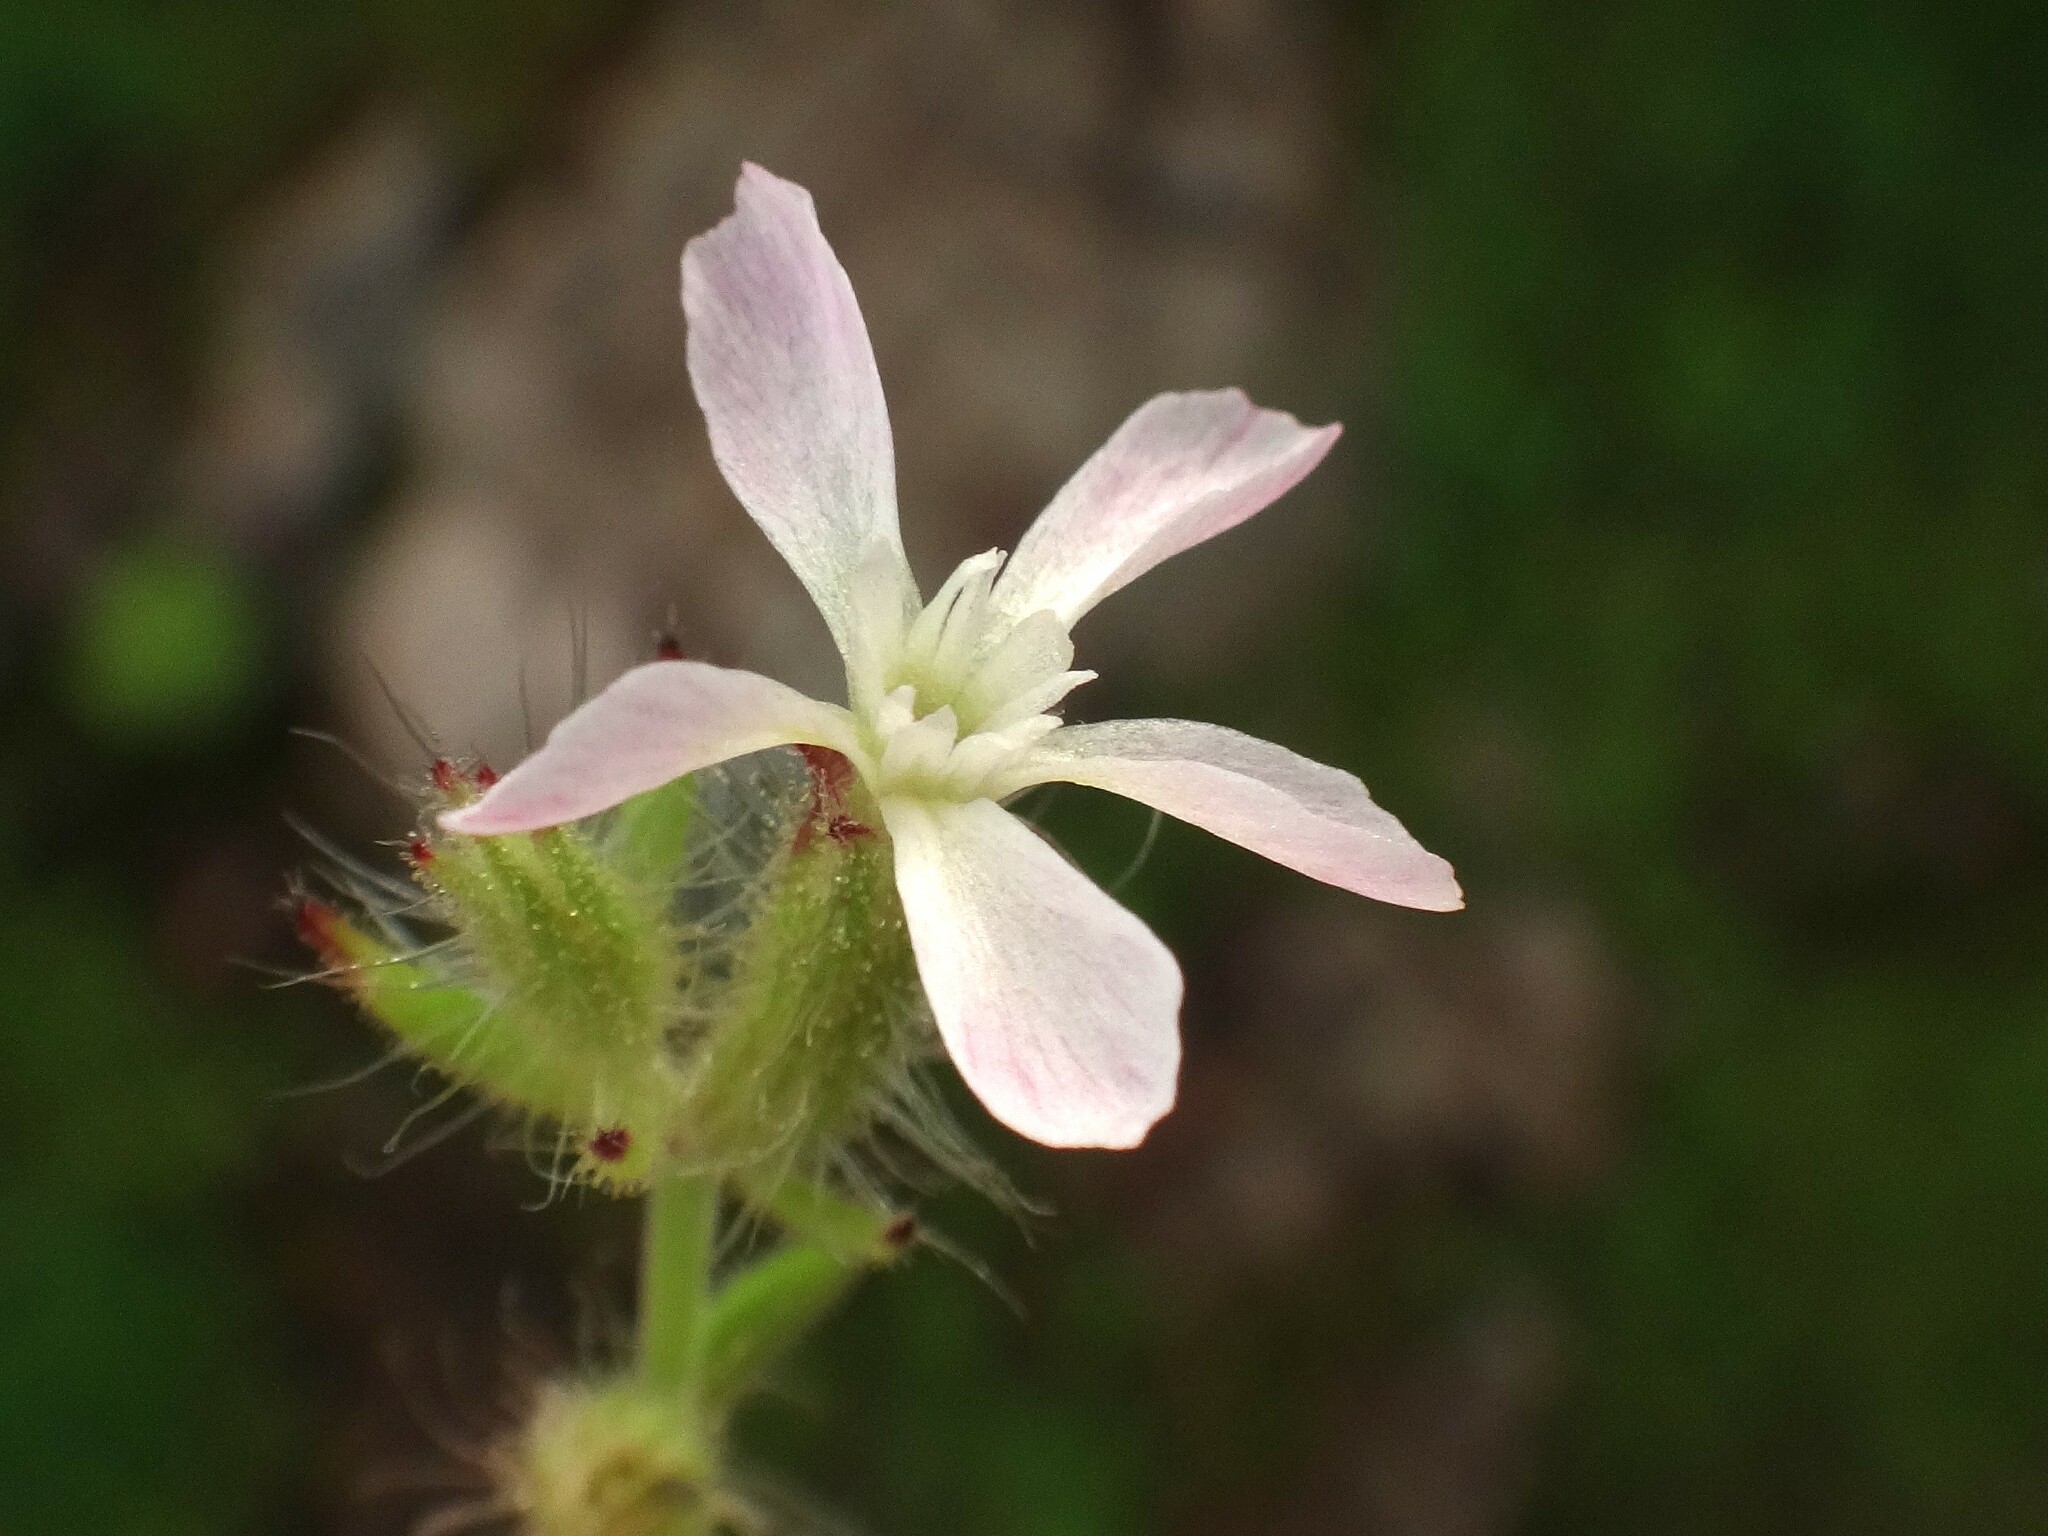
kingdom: Plantae
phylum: Tracheophyta
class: Magnoliopsida
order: Caryophyllales
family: Caryophyllaceae
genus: Silene
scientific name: Silene gallica
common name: Small-flowered catchfly
